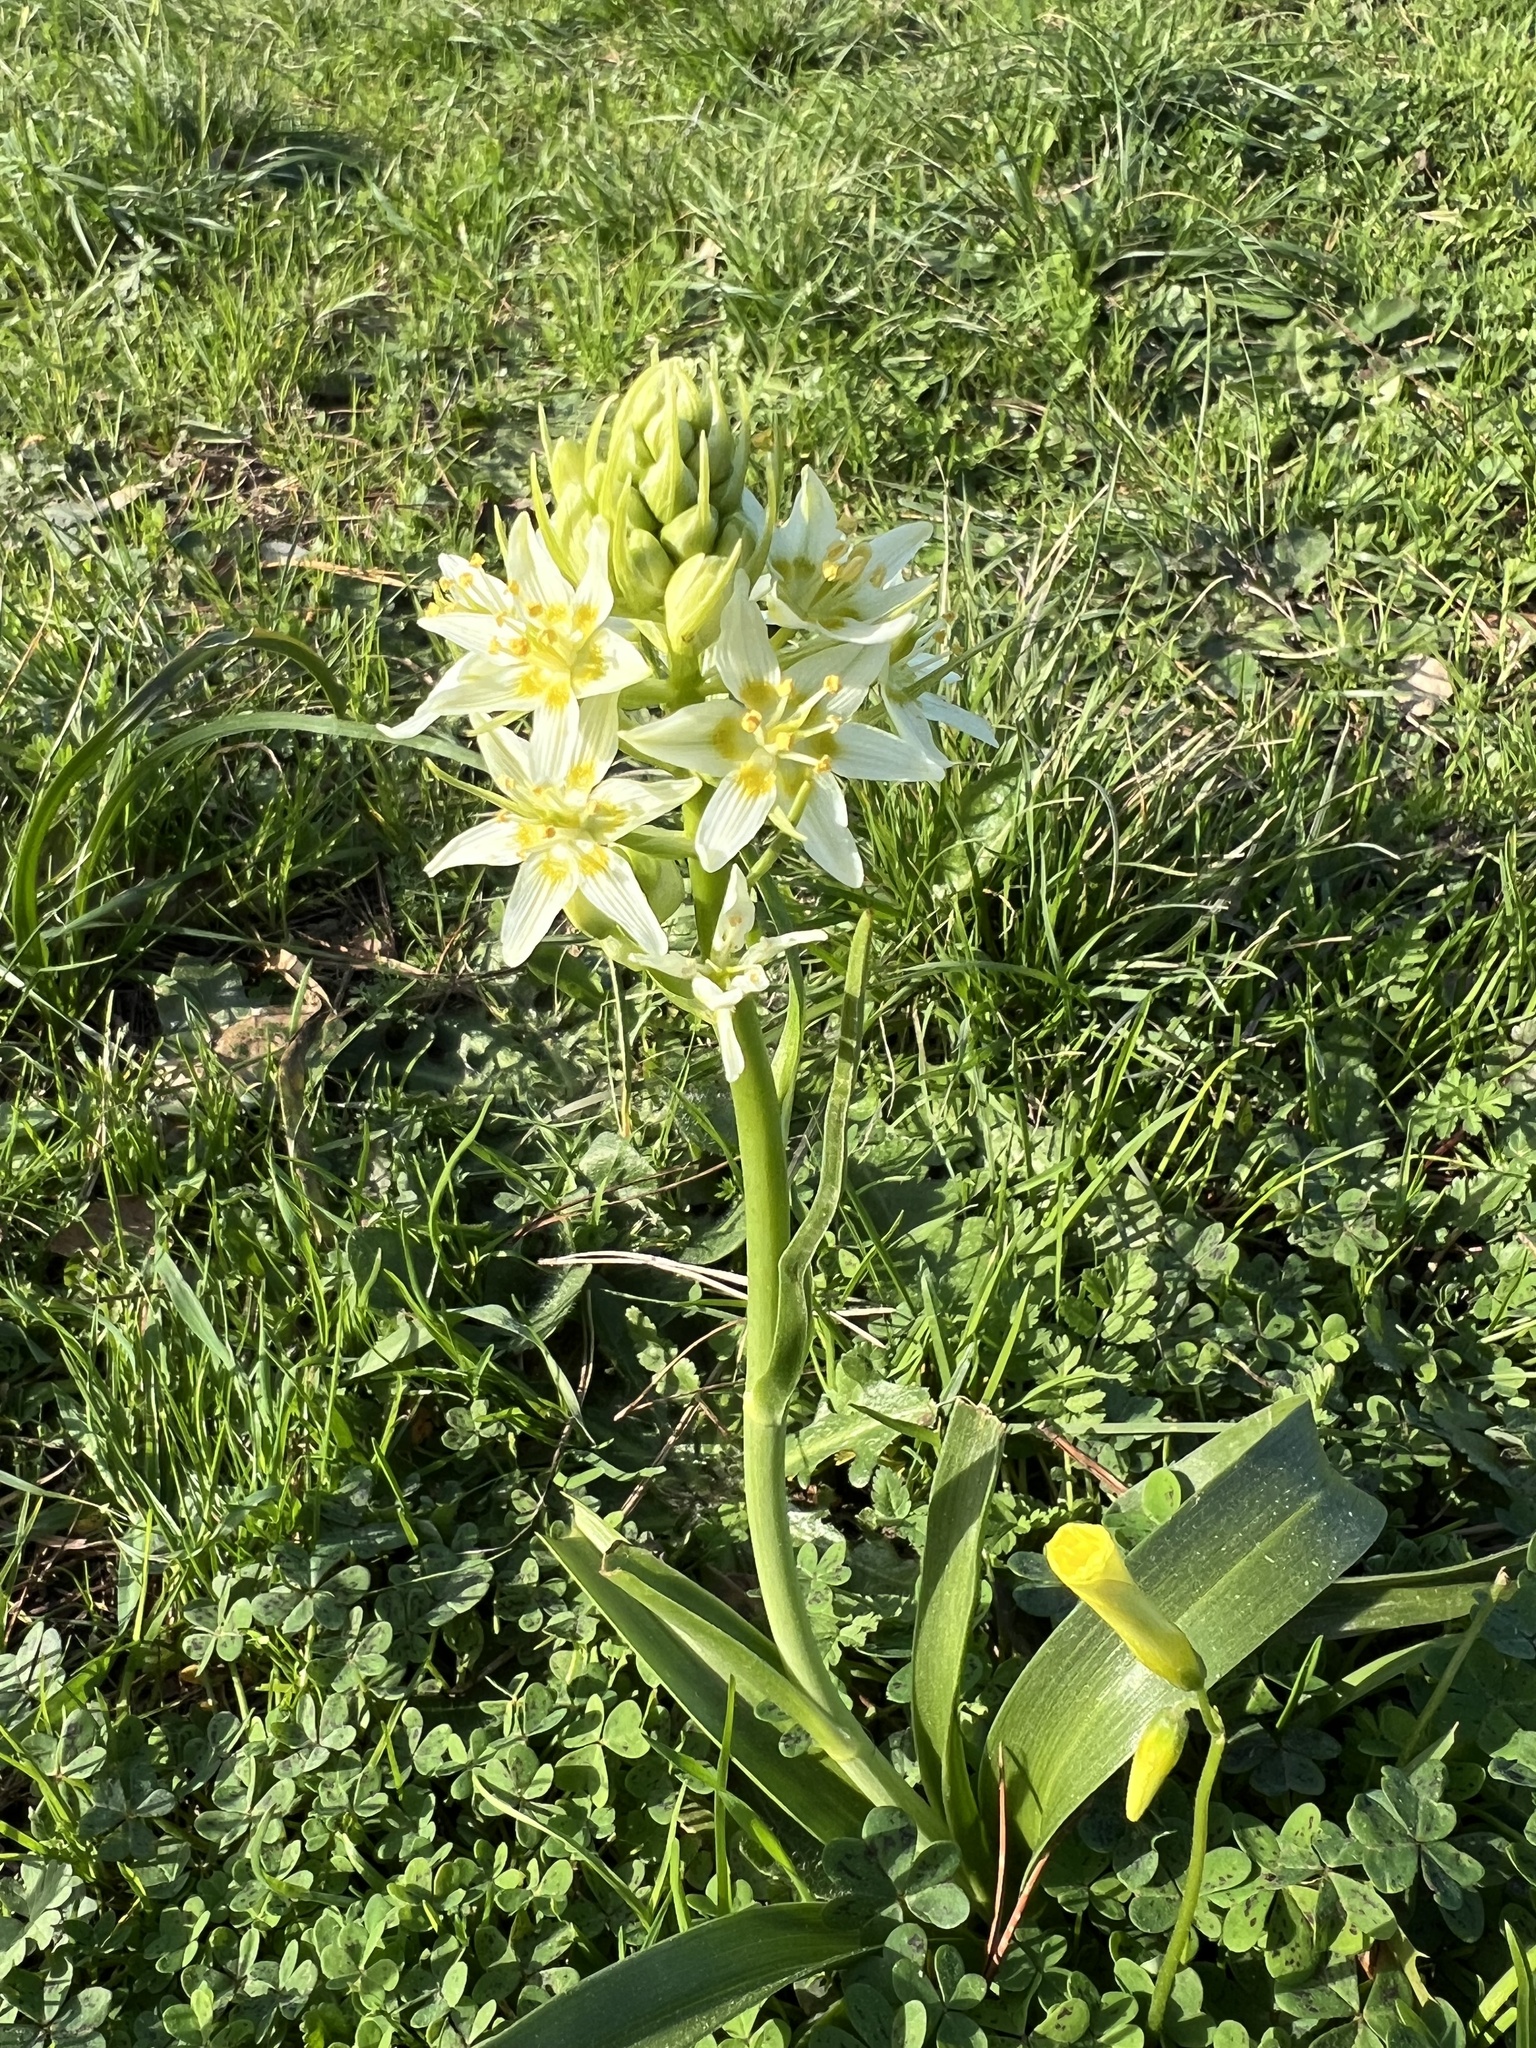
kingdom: Plantae
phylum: Tracheophyta
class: Liliopsida
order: Liliales
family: Melanthiaceae
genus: Toxicoscordion
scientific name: Toxicoscordion fremontii
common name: Fremont's death camas
